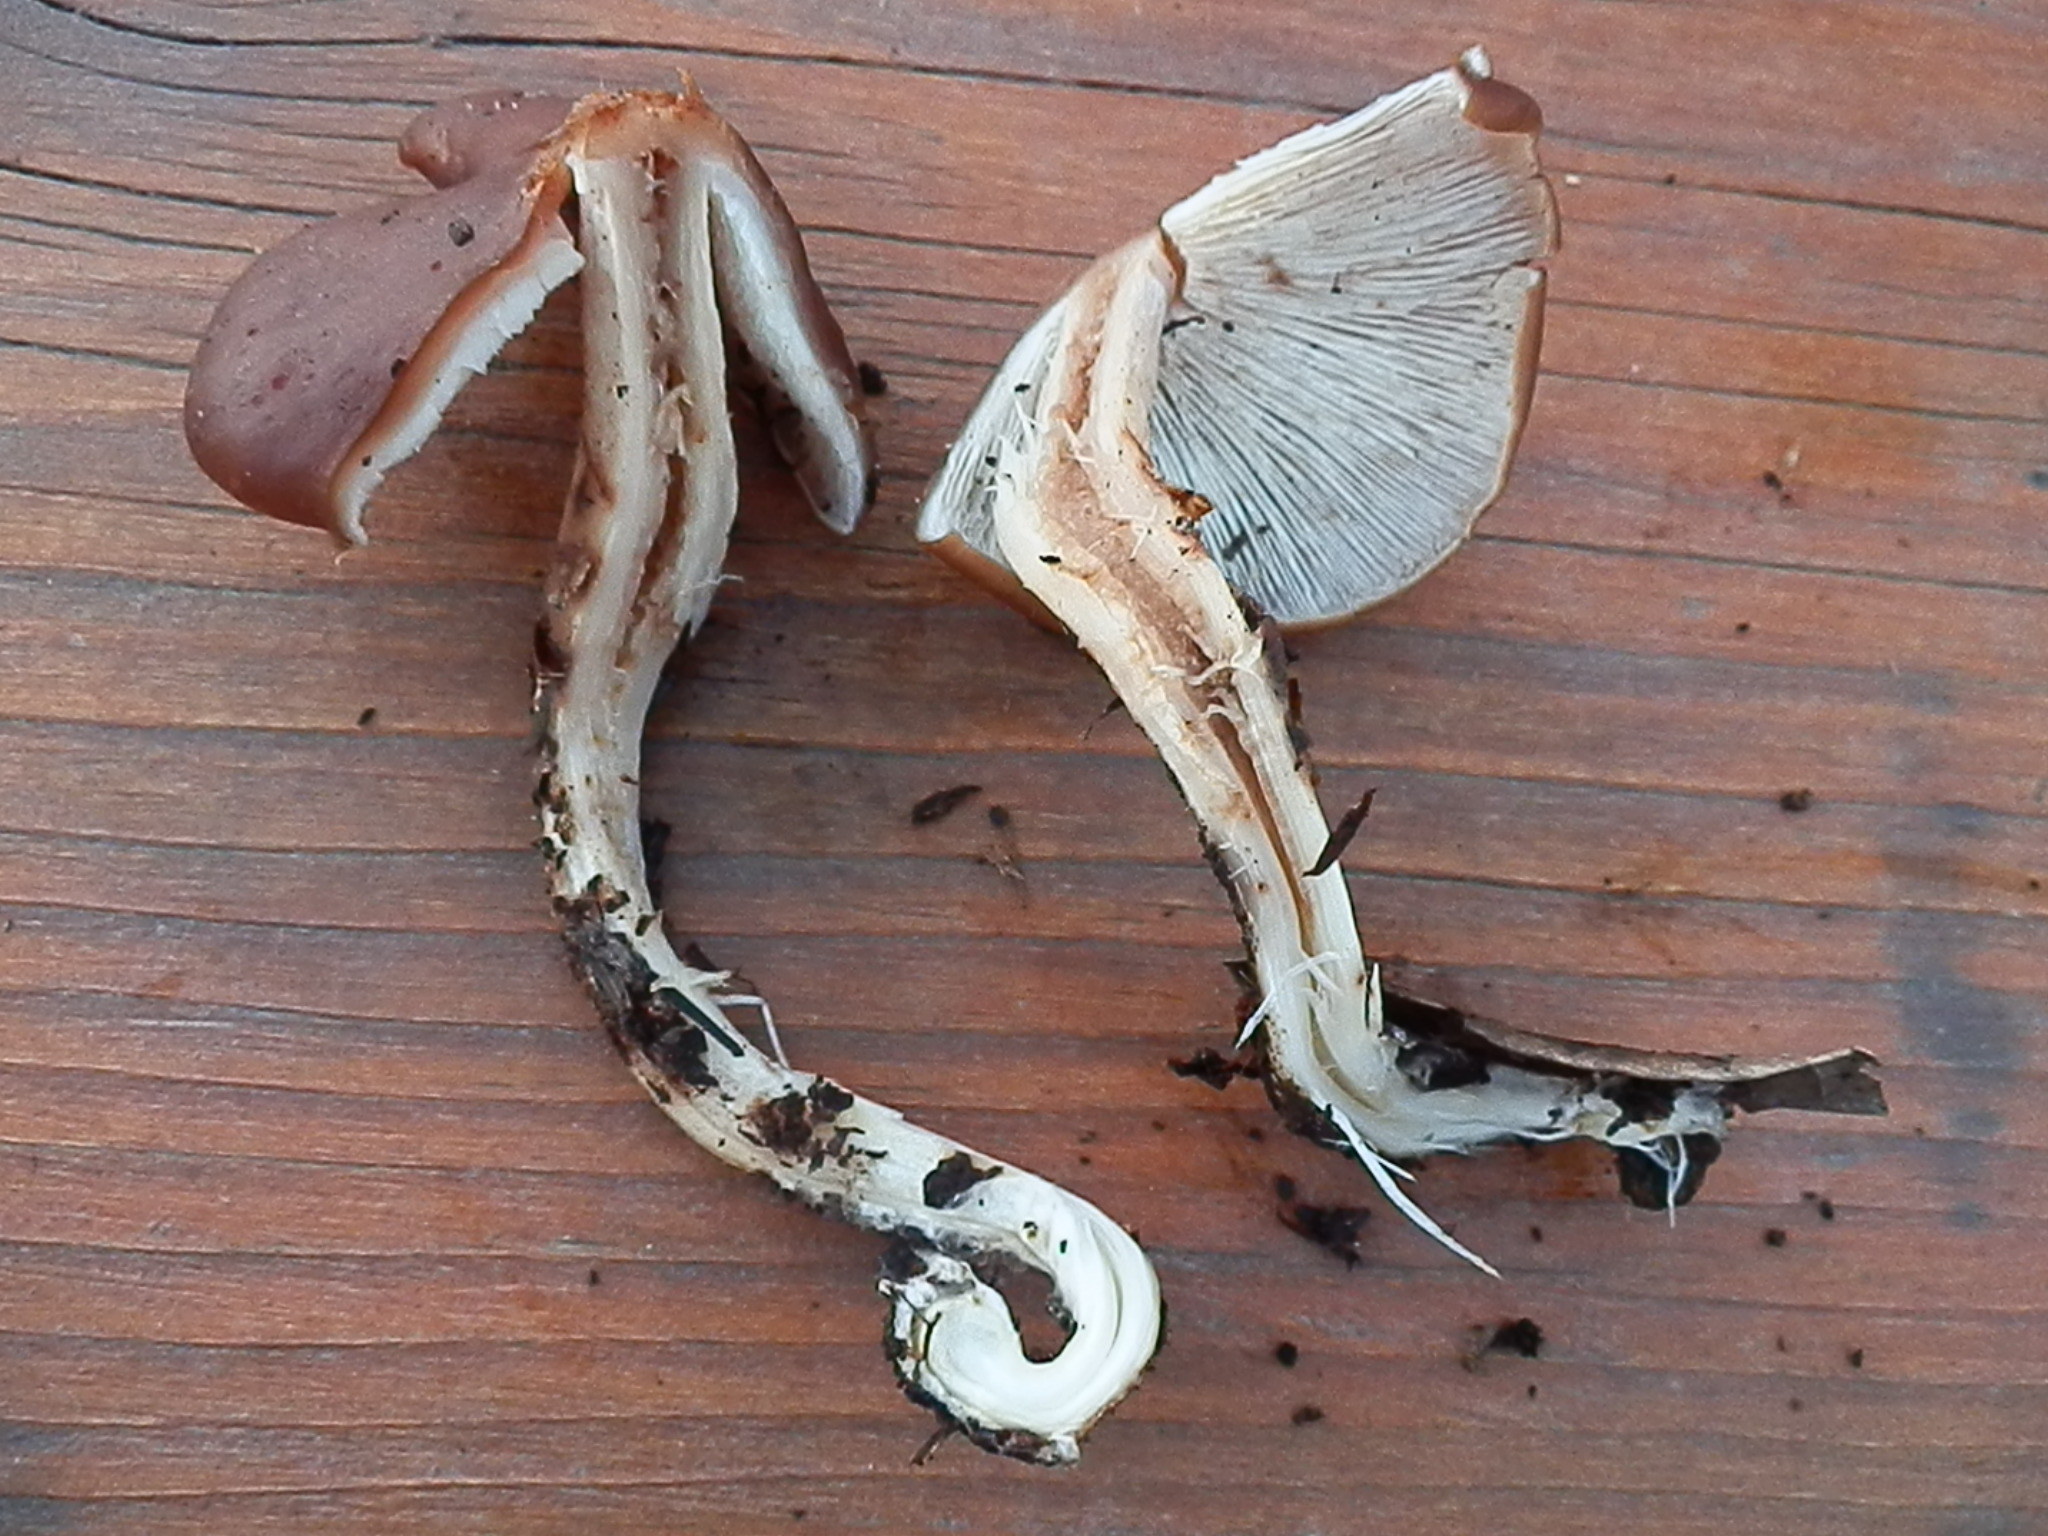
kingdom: Fungi
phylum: Basidiomycota
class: Agaricomycetes
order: Agaricales
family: Omphalotaceae
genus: Rhodocollybia
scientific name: Rhodocollybia badiialba
